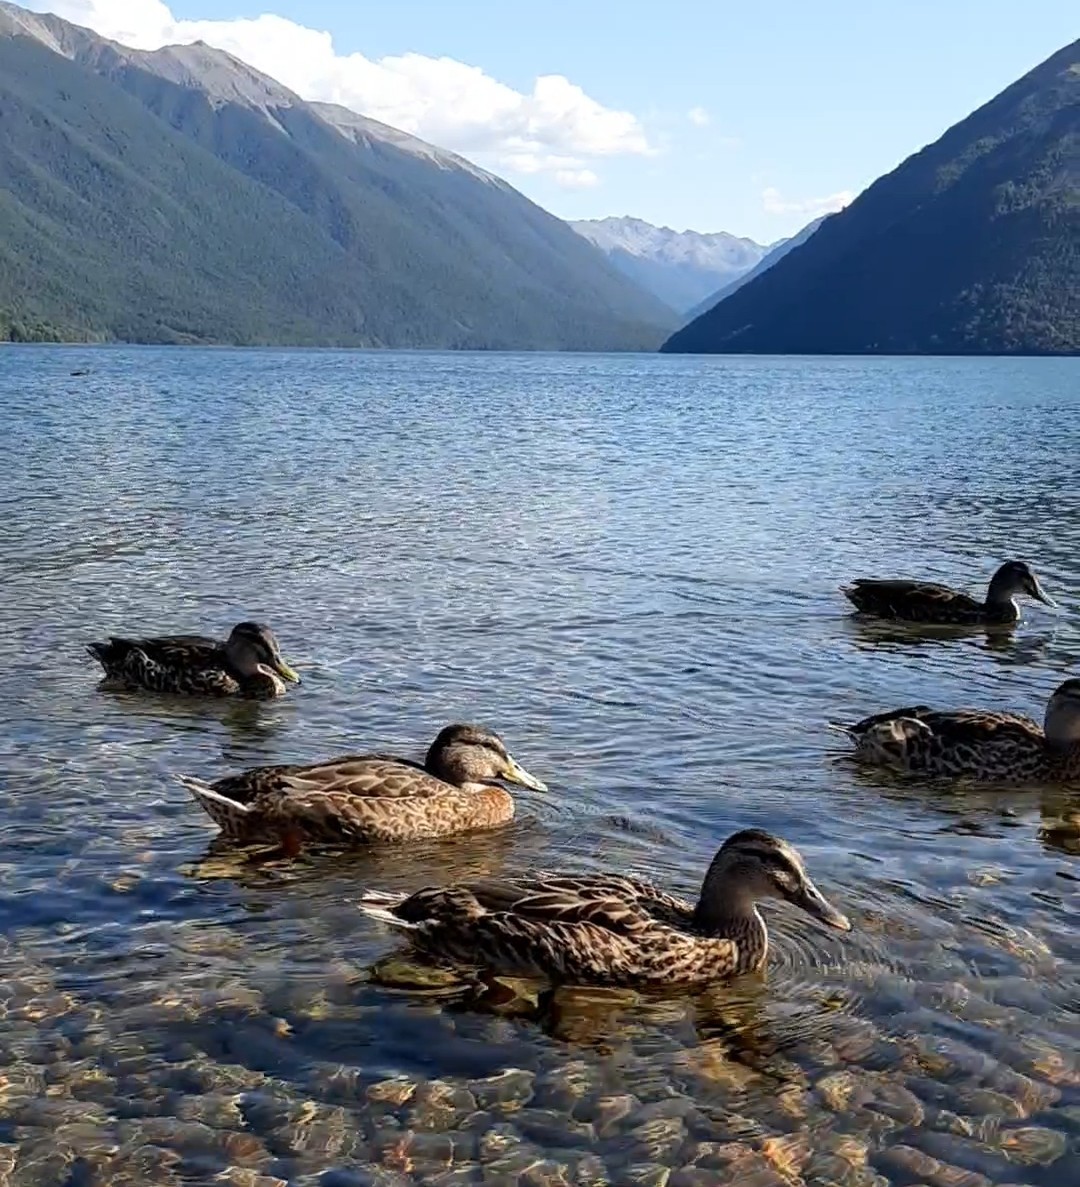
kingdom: Animalia
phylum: Chordata
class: Aves
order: Anseriformes
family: Anatidae
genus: Anas
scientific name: Anas
